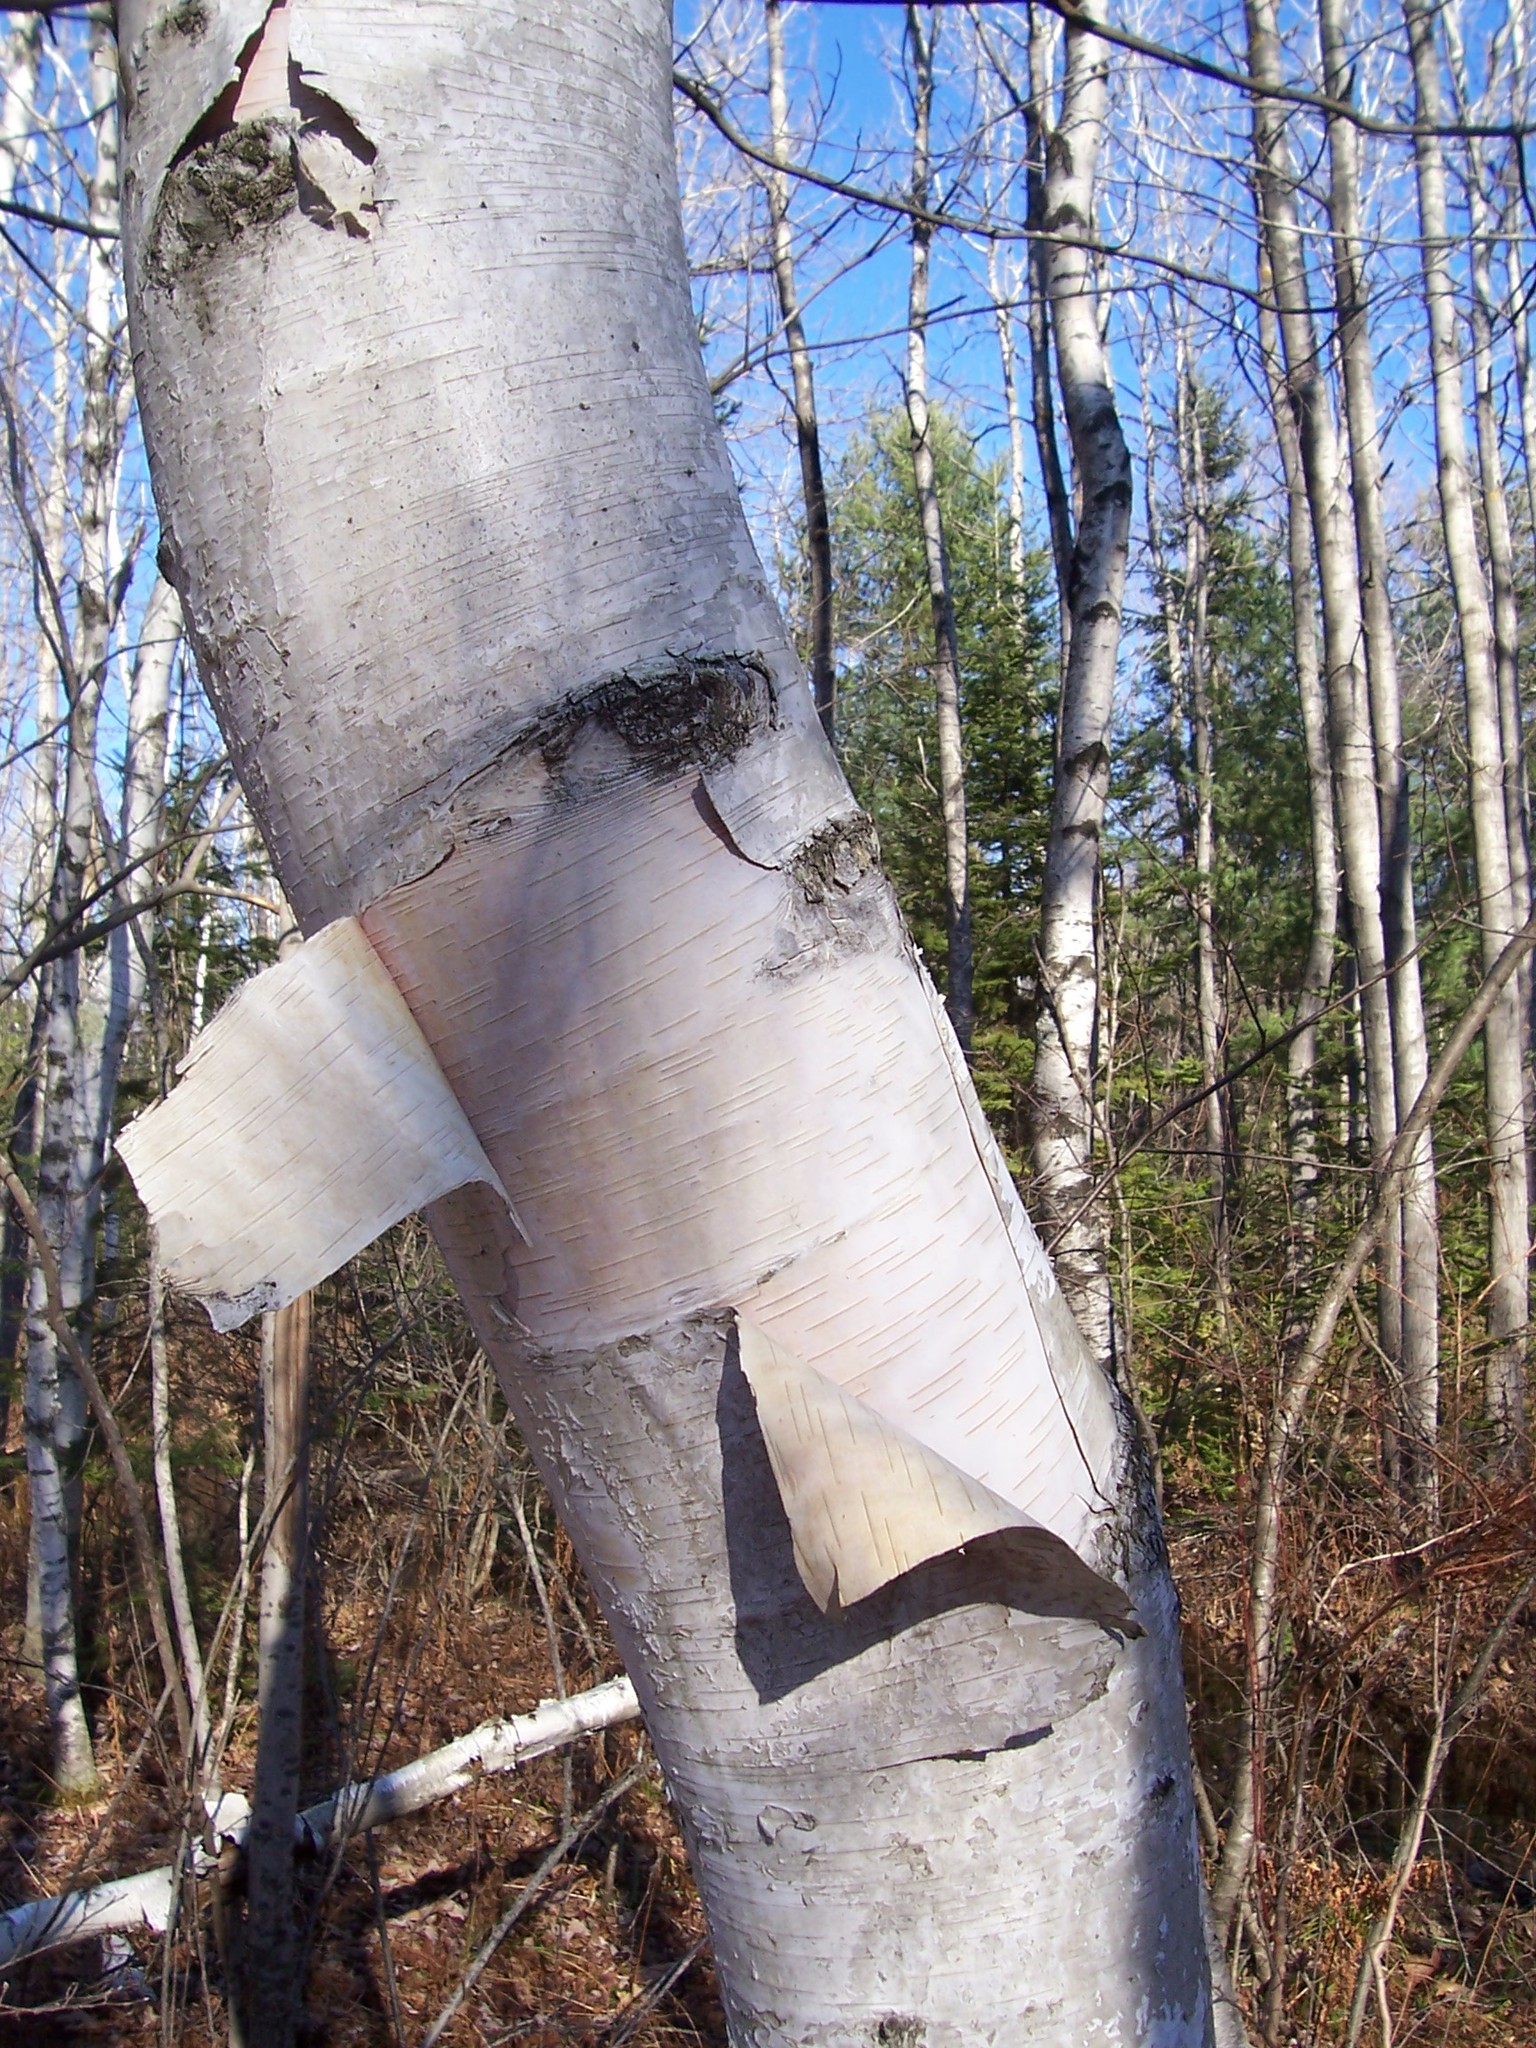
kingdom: Plantae
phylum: Tracheophyta
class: Magnoliopsida
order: Fagales
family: Betulaceae
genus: Betula
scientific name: Betula papyrifera
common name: Paper birch
